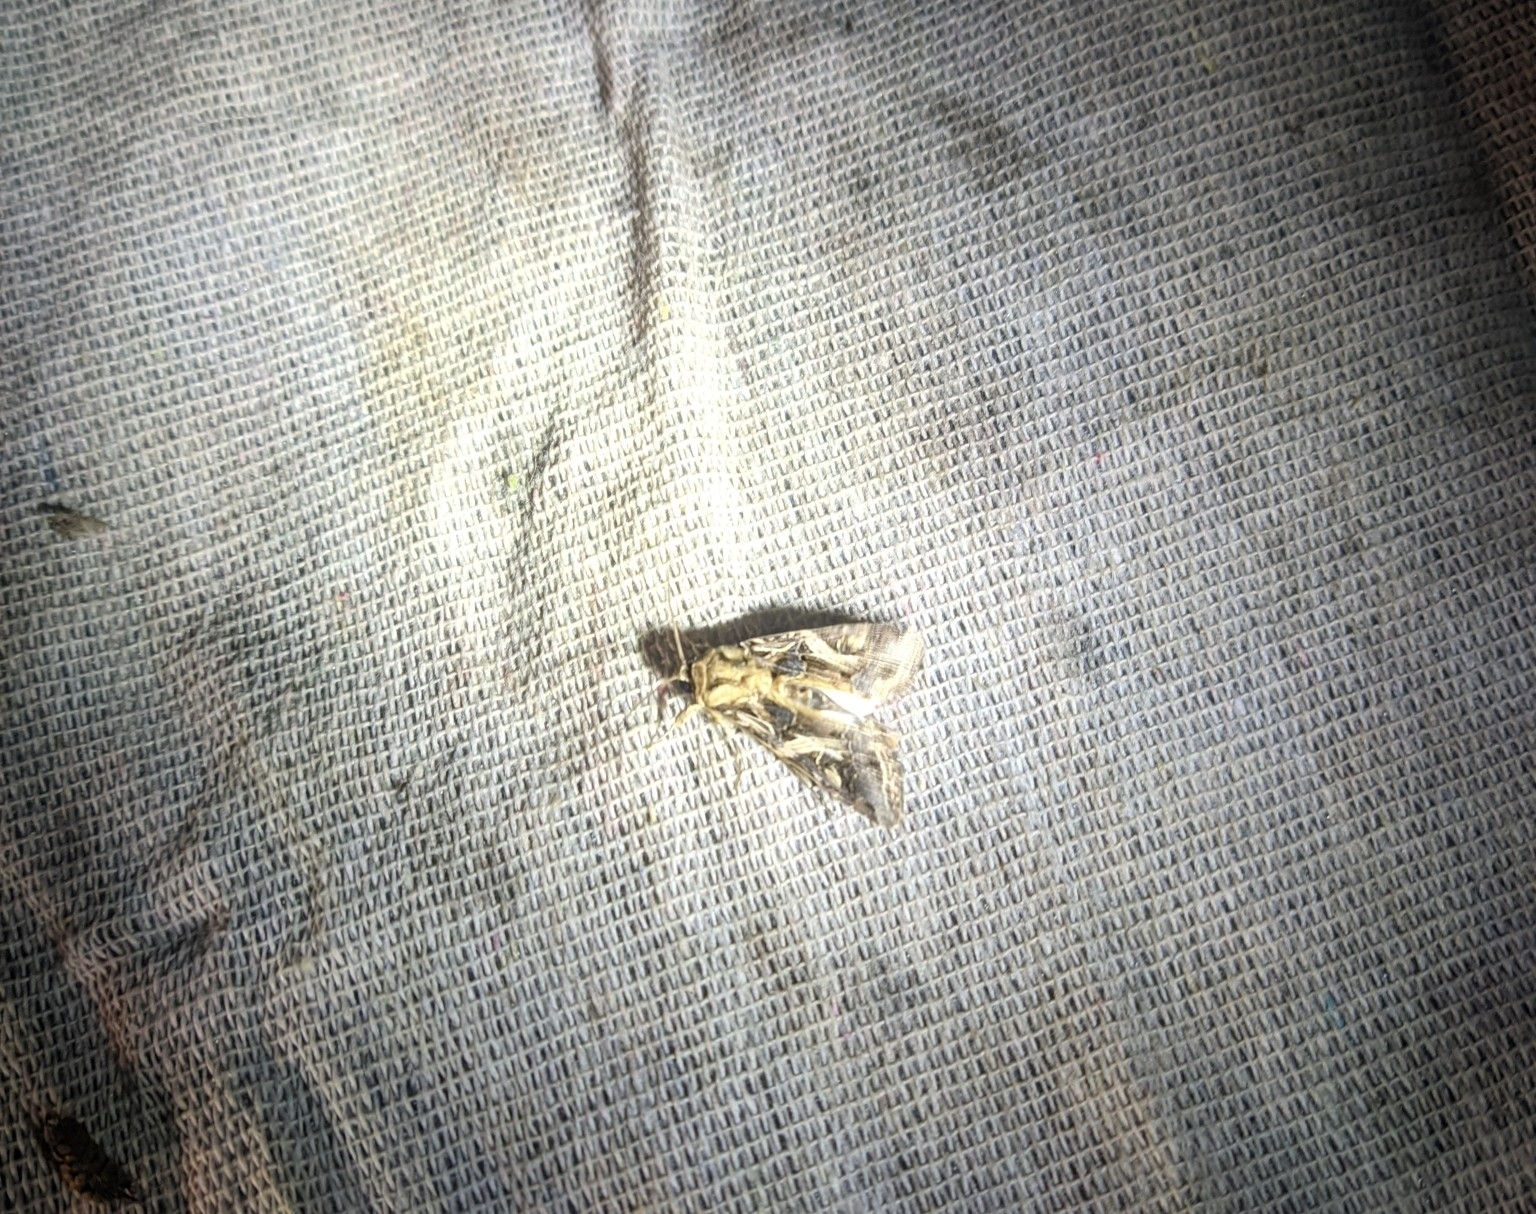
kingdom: Animalia
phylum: Arthropoda
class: Insecta
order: Lepidoptera
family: Noctuidae
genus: Spodoptera
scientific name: Spodoptera litura
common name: Asian cotton leafworm
